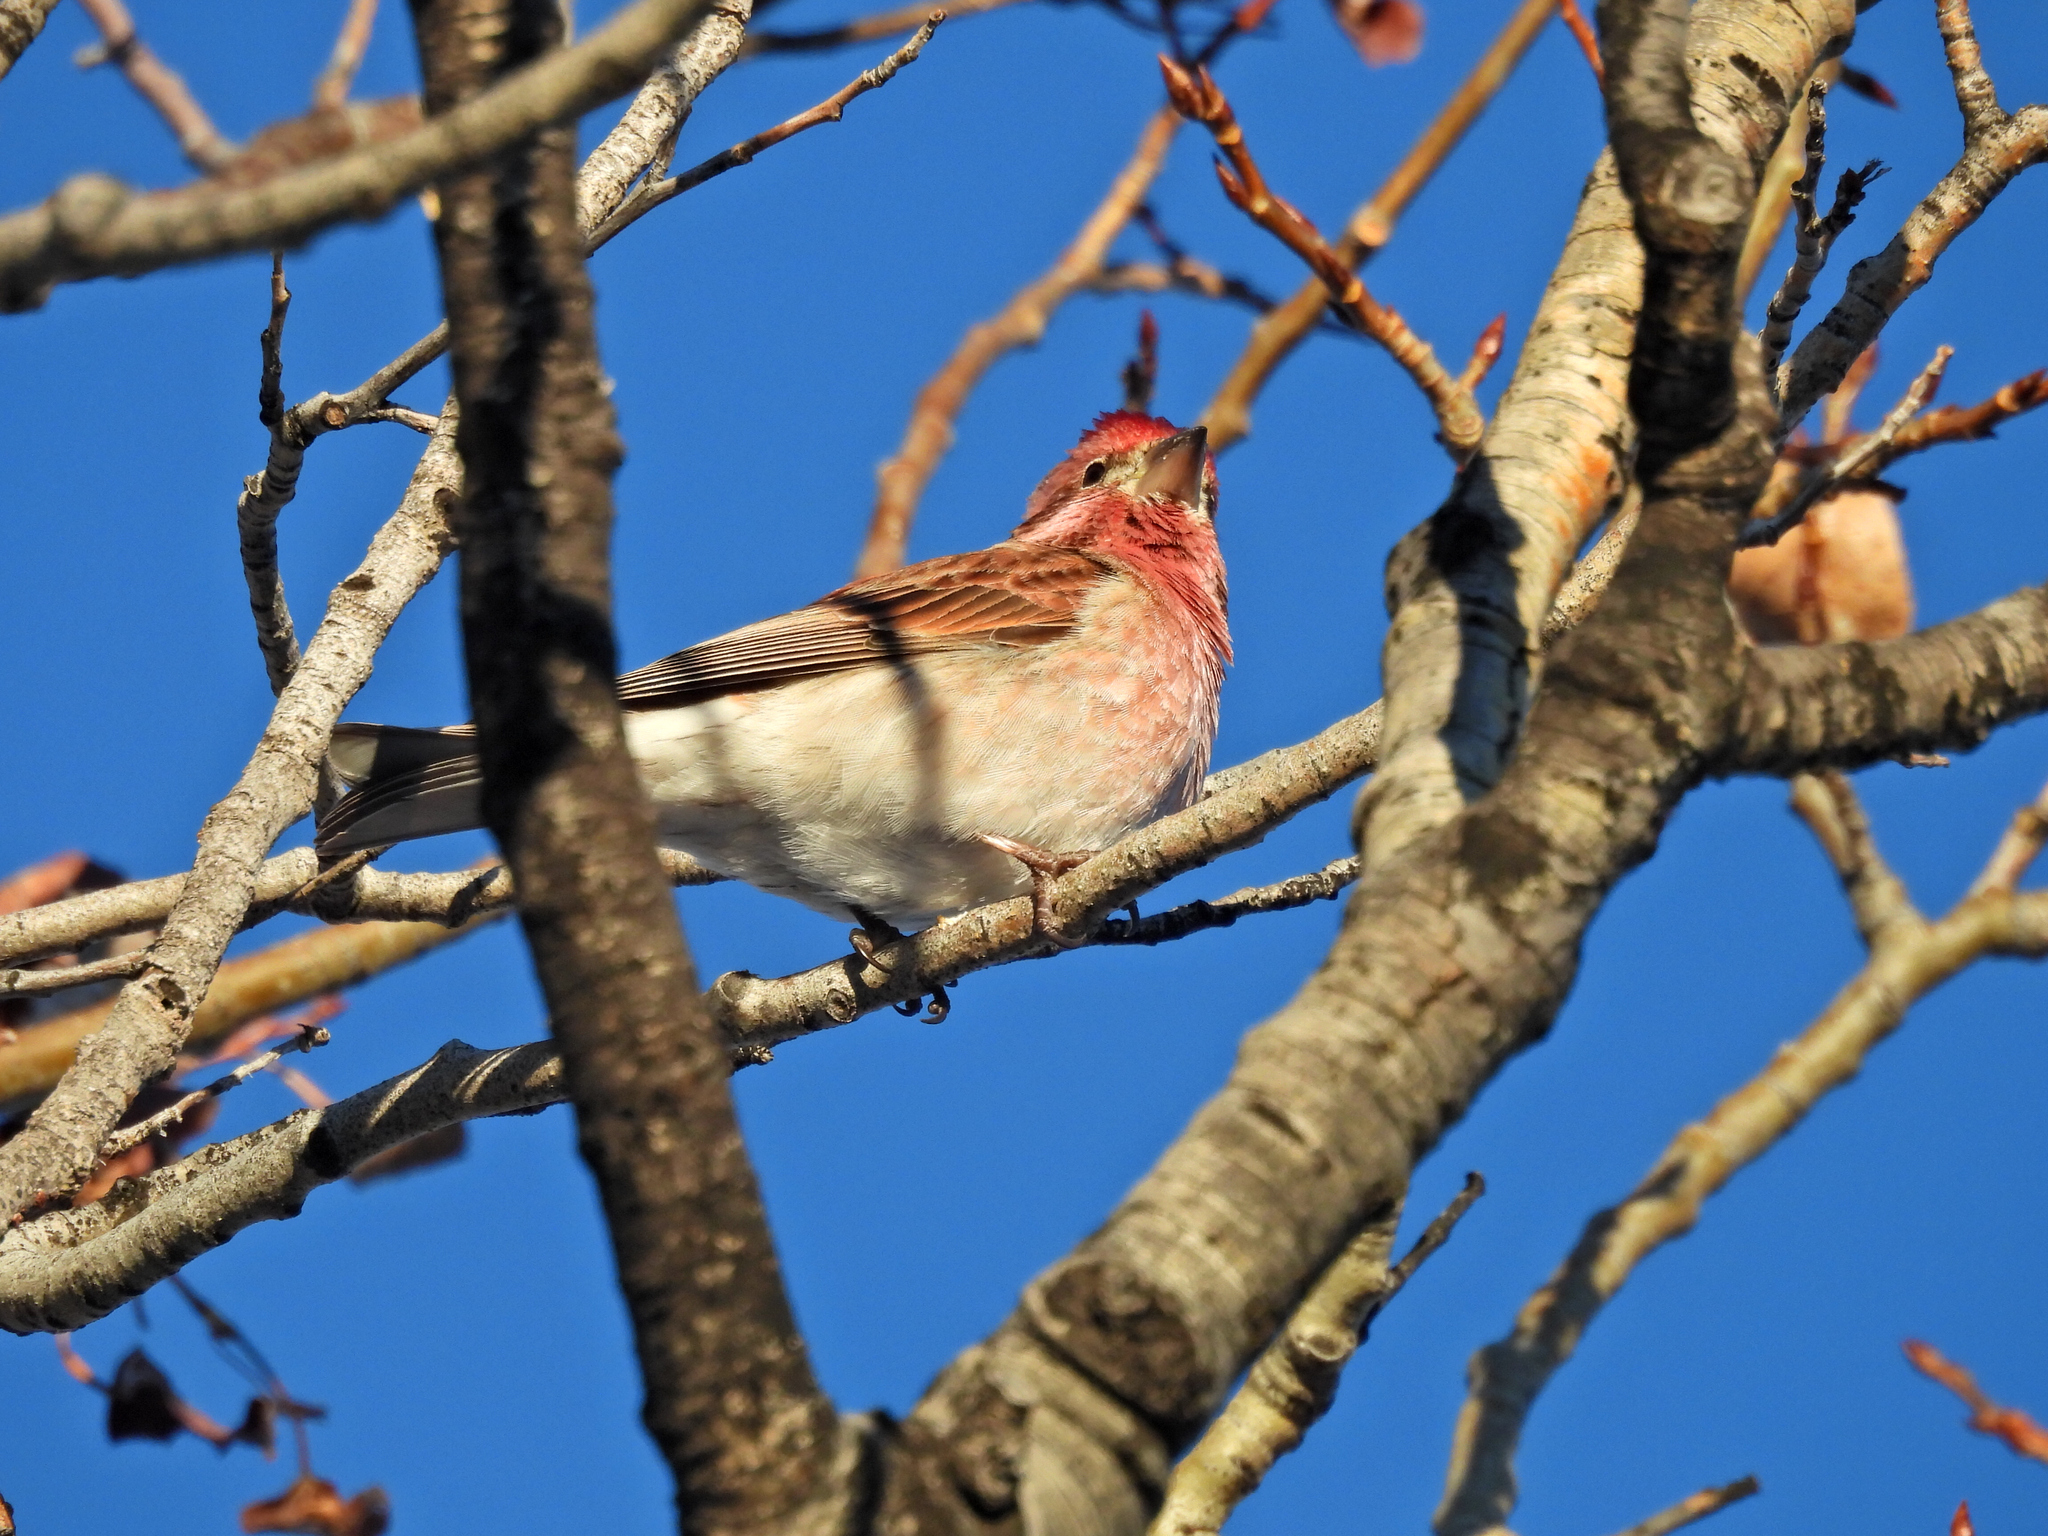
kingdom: Animalia
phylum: Chordata
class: Aves
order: Passeriformes
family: Fringillidae
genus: Haemorhous
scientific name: Haemorhous cassinii
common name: Cassin's finch
